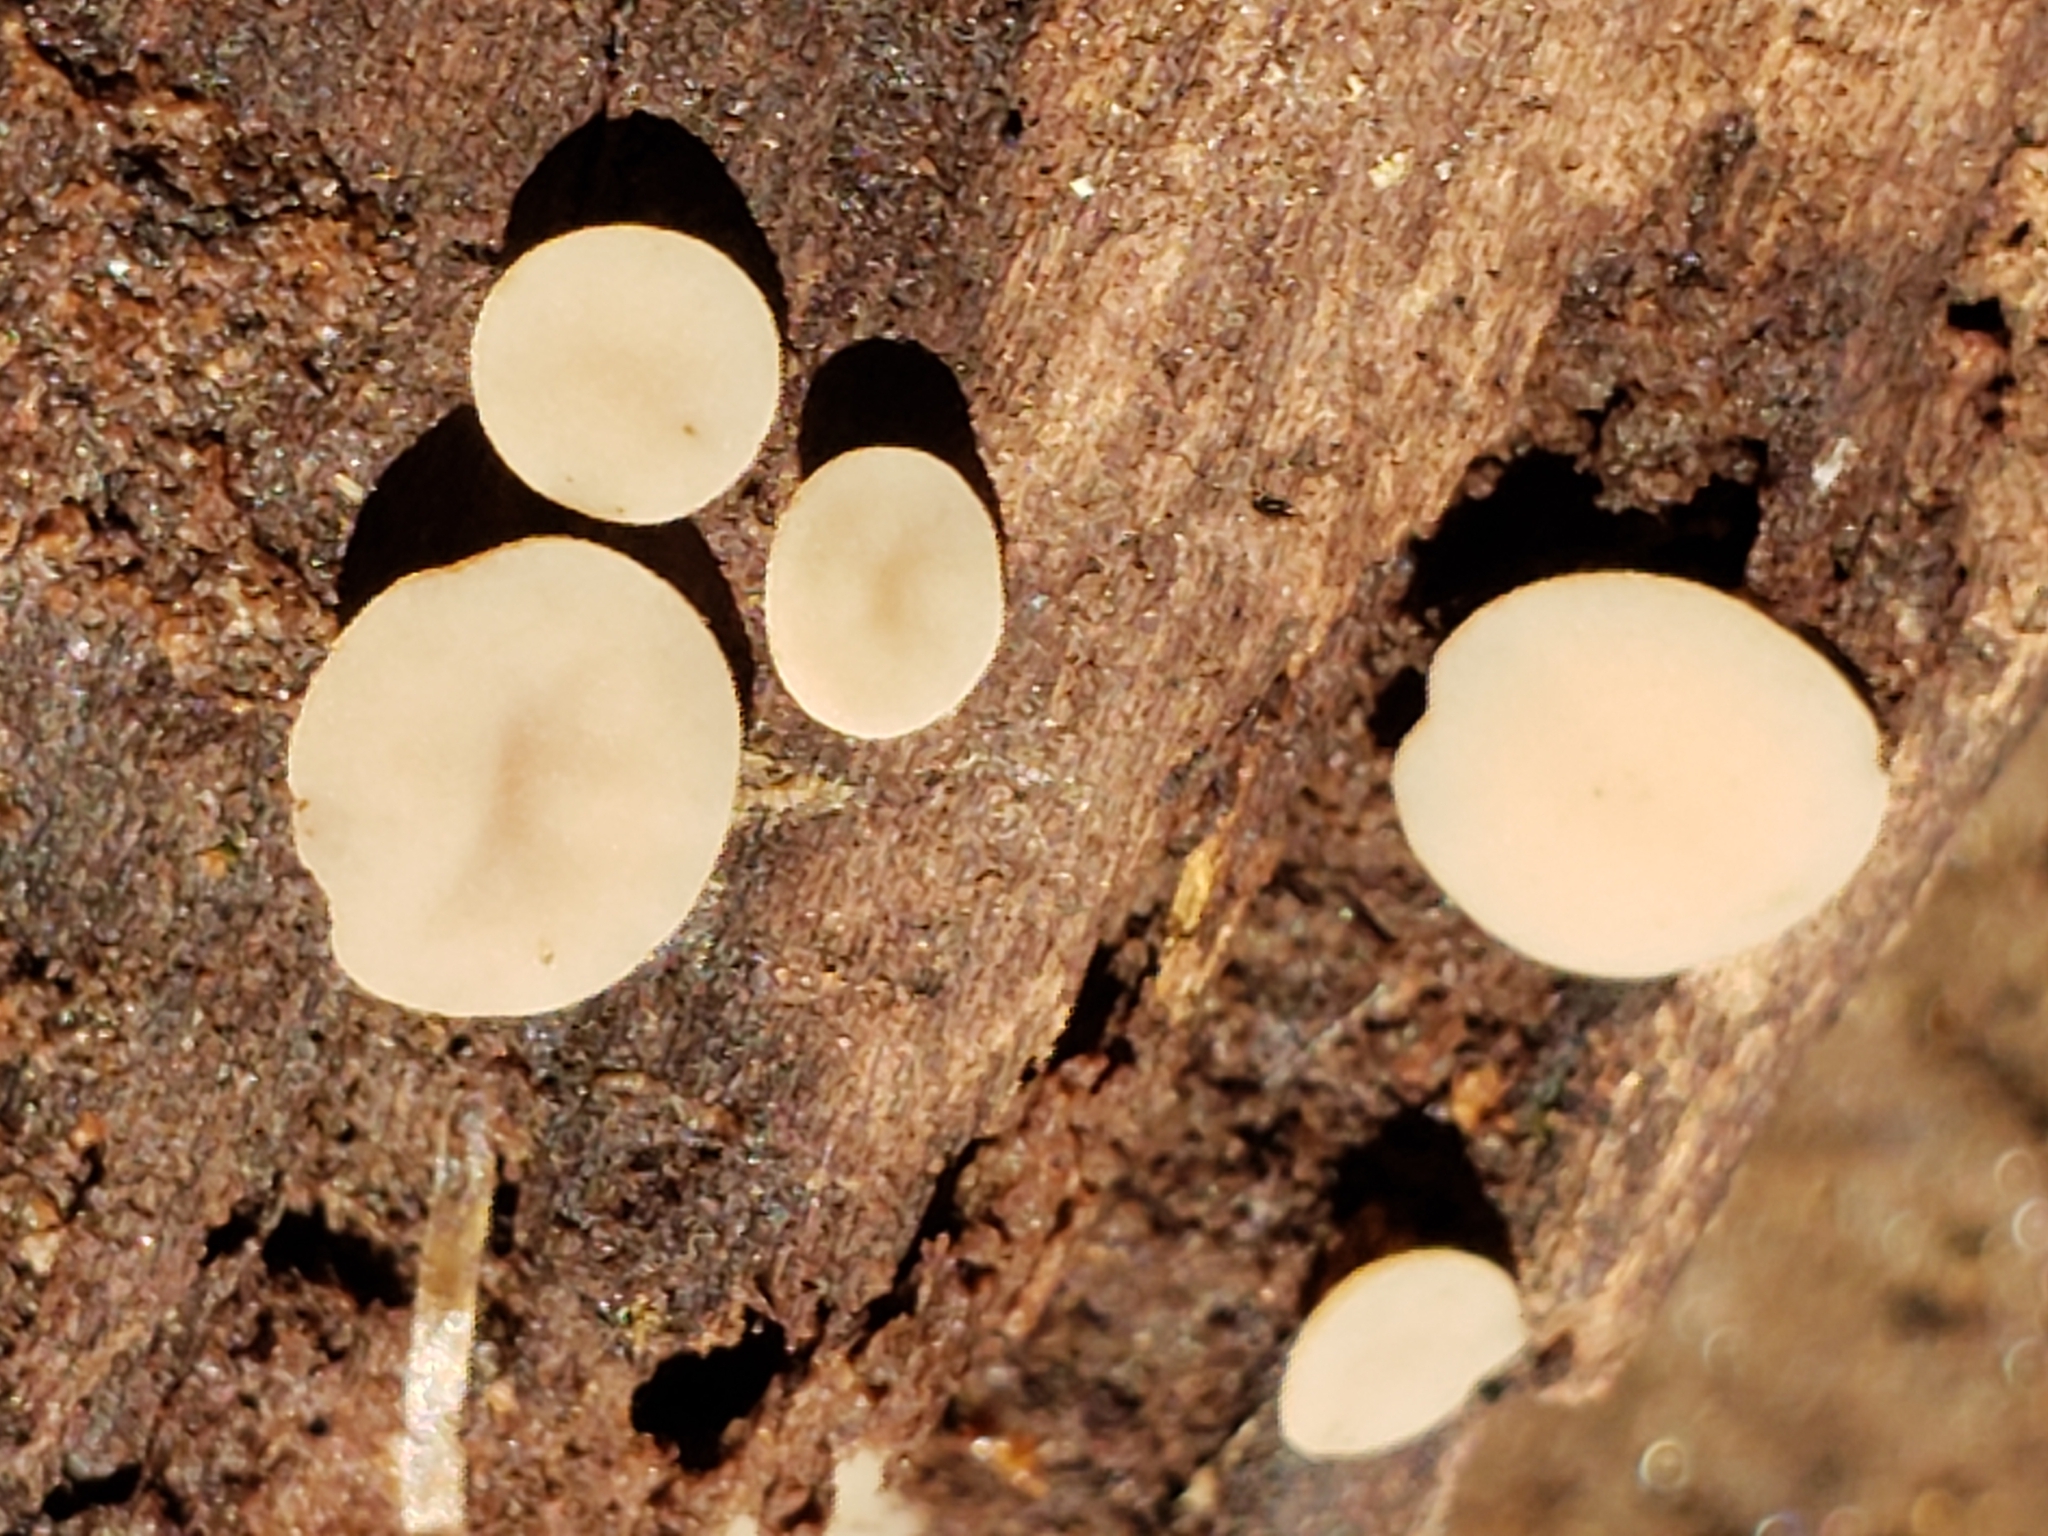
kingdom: Fungi
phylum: Ascomycota
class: Leotiomycetes
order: Helotiales
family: Helotiaceae
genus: Tatraea
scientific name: Tatraea macrospora
